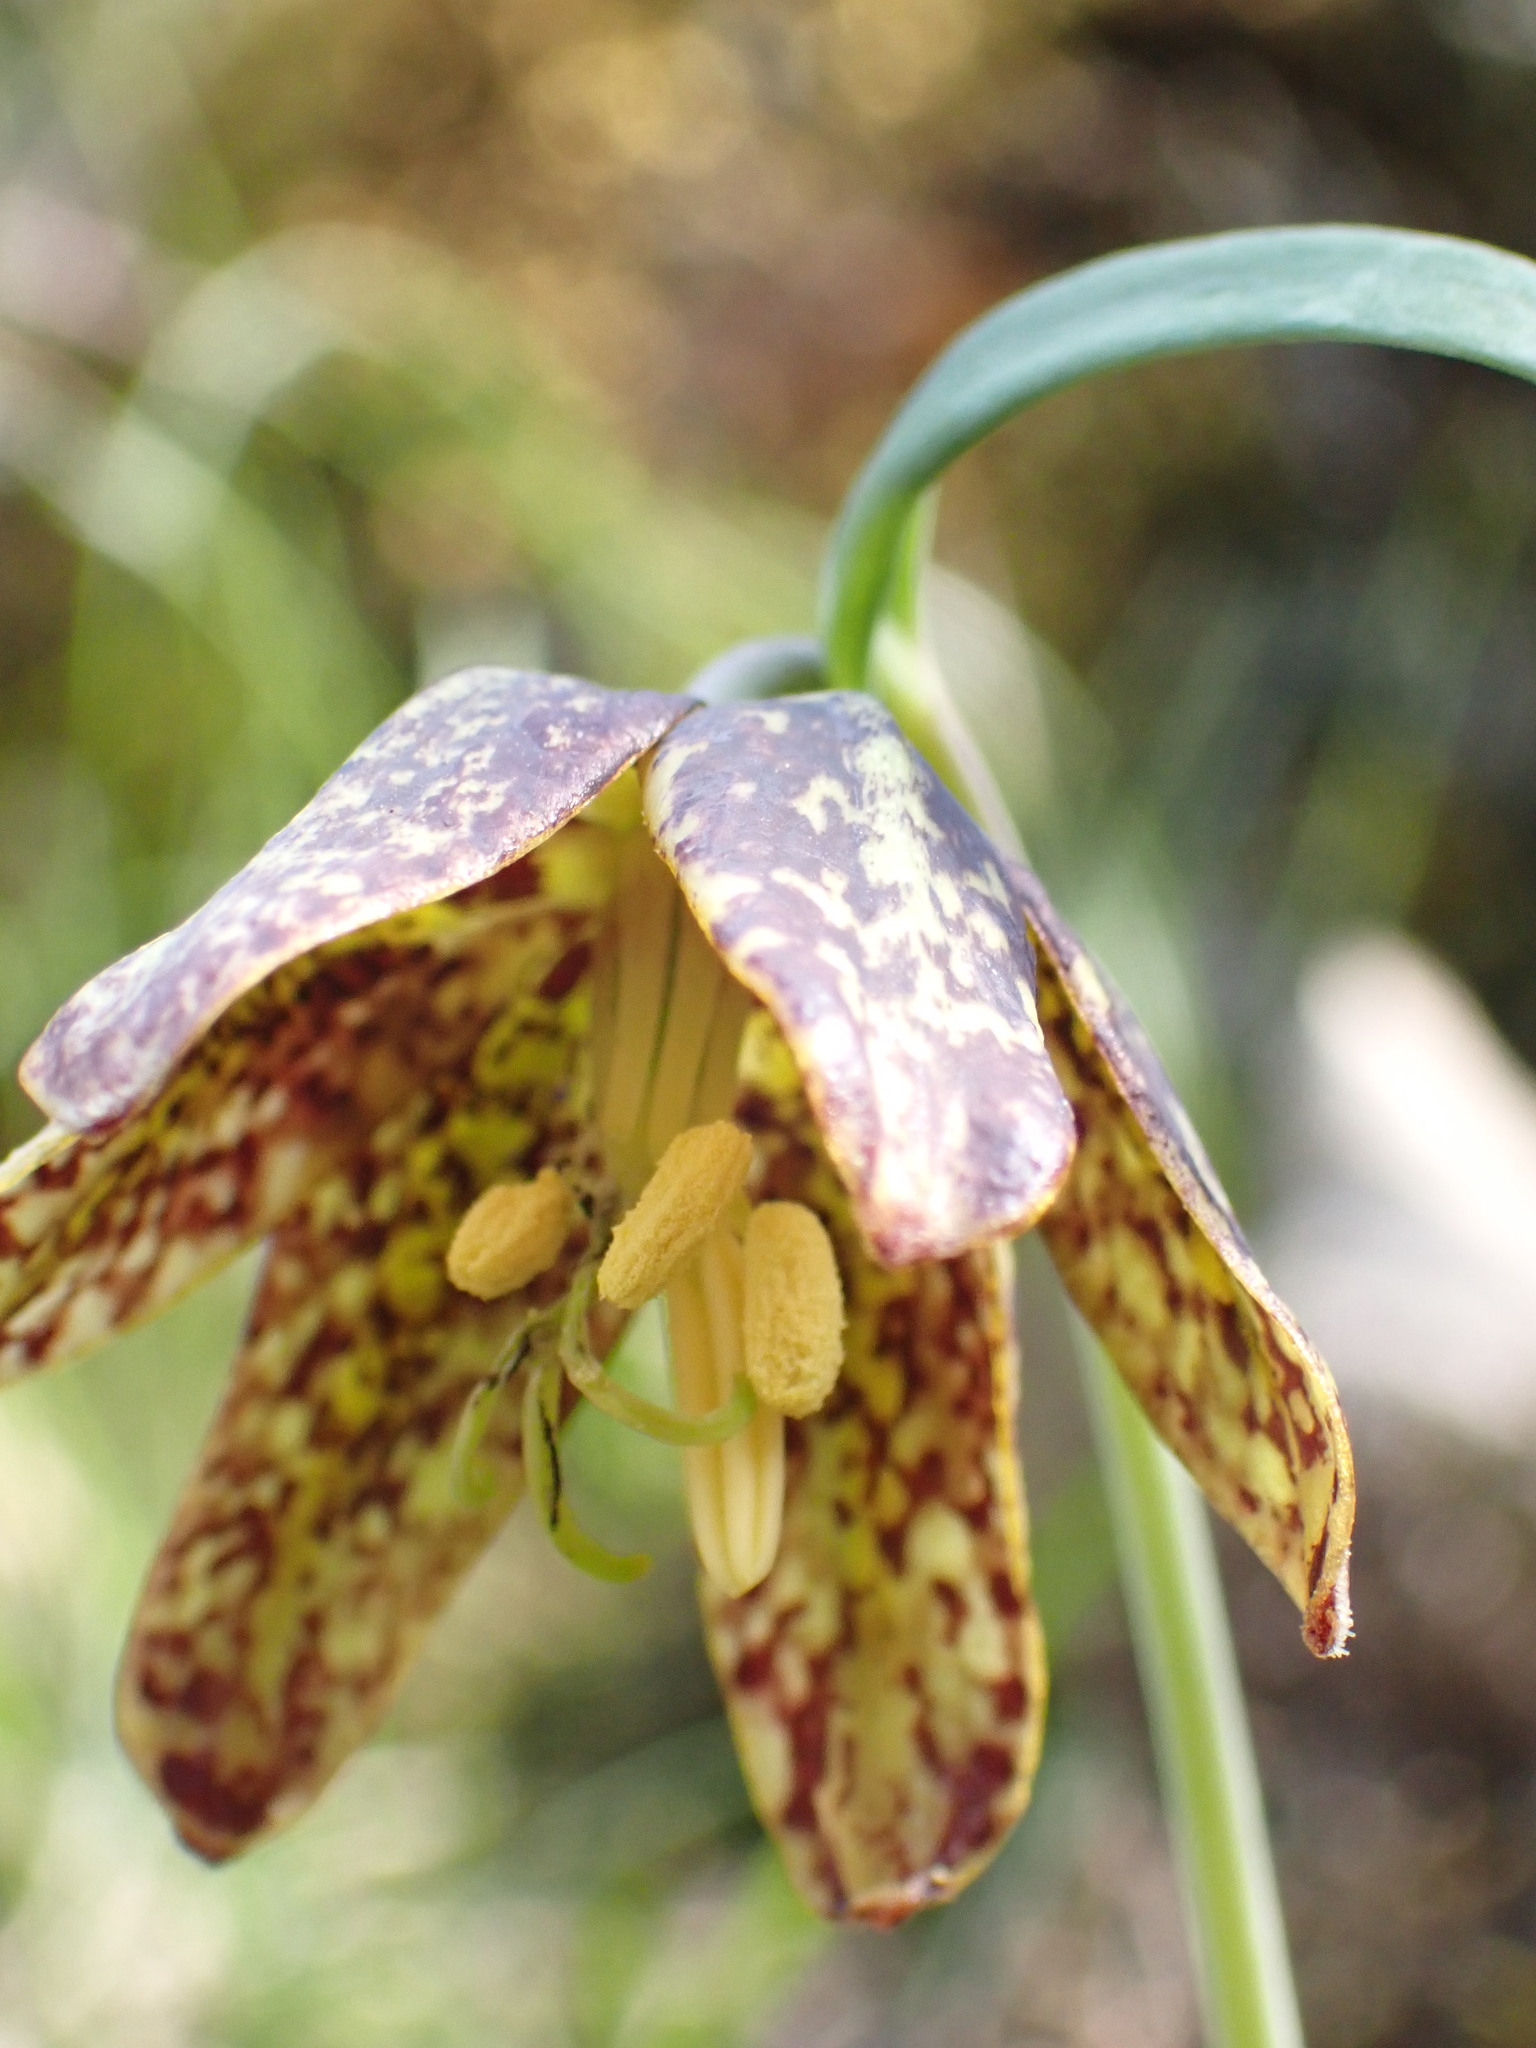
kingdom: Plantae
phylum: Tracheophyta
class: Liliopsida
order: Liliales
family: Liliaceae
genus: Fritillaria
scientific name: Fritillaria affinis
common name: Ojai fritillary
